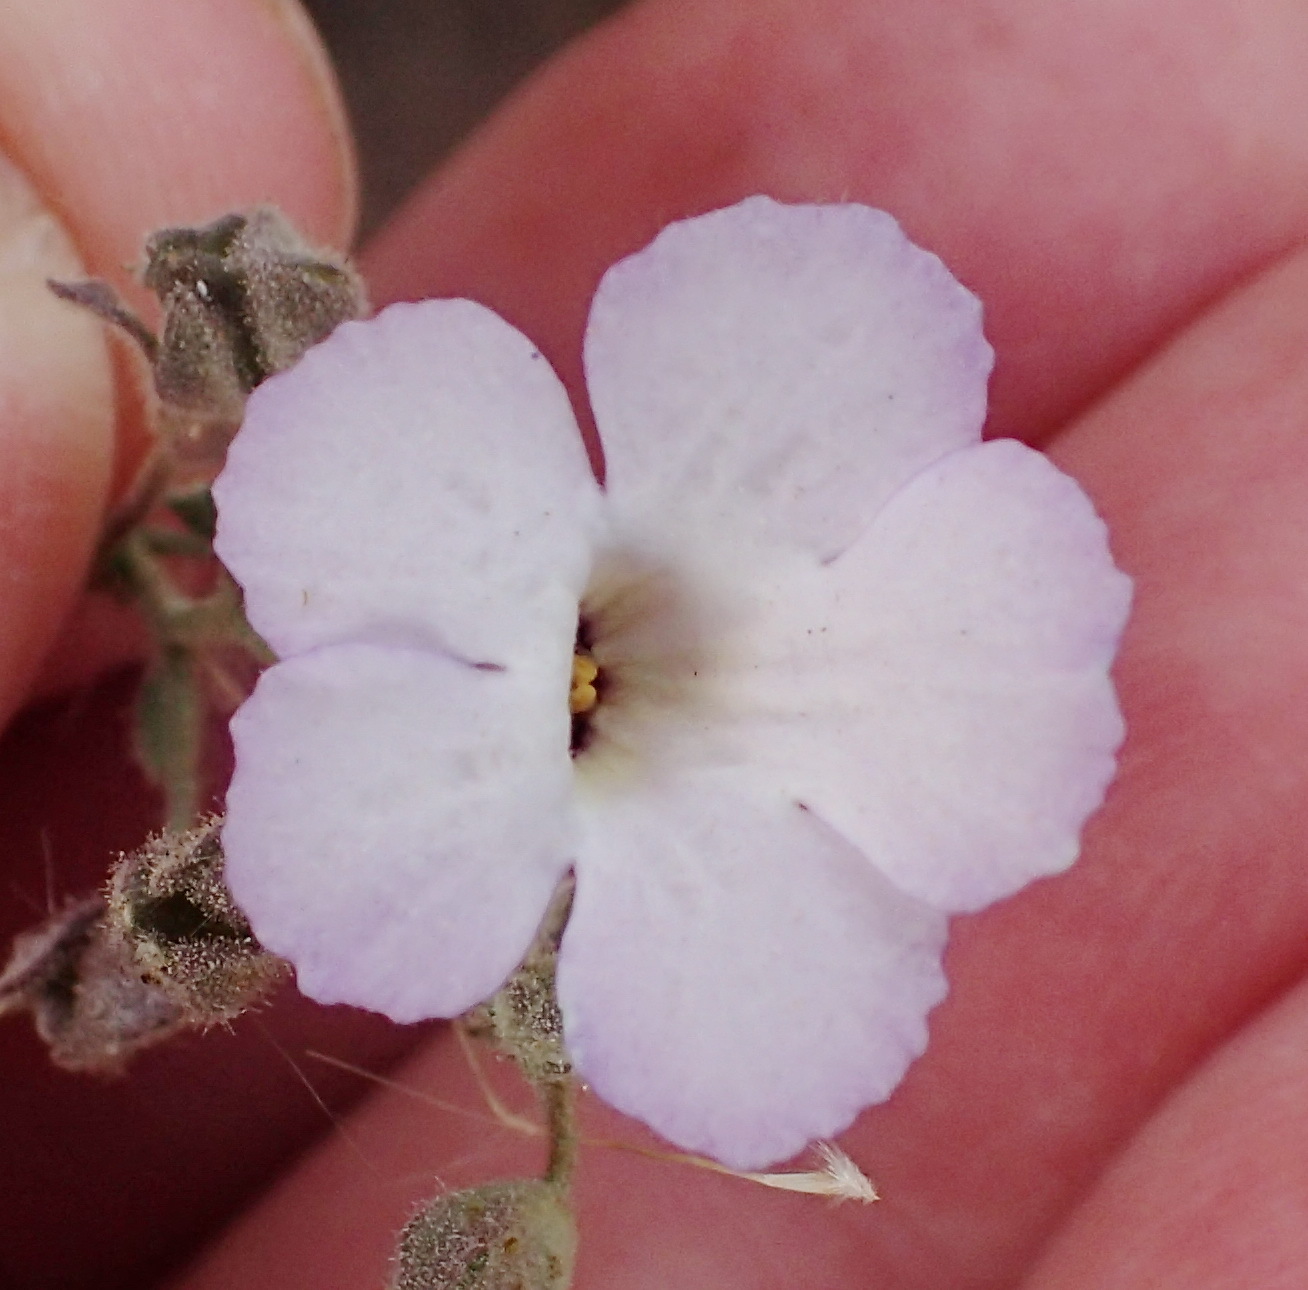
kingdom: Plantae
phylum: Tracheophyta
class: Magnoliopsida
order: Lamiales
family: Scrophulariaceae
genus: Jamesbrittenia
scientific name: Jamesbrittenia ramosissima
